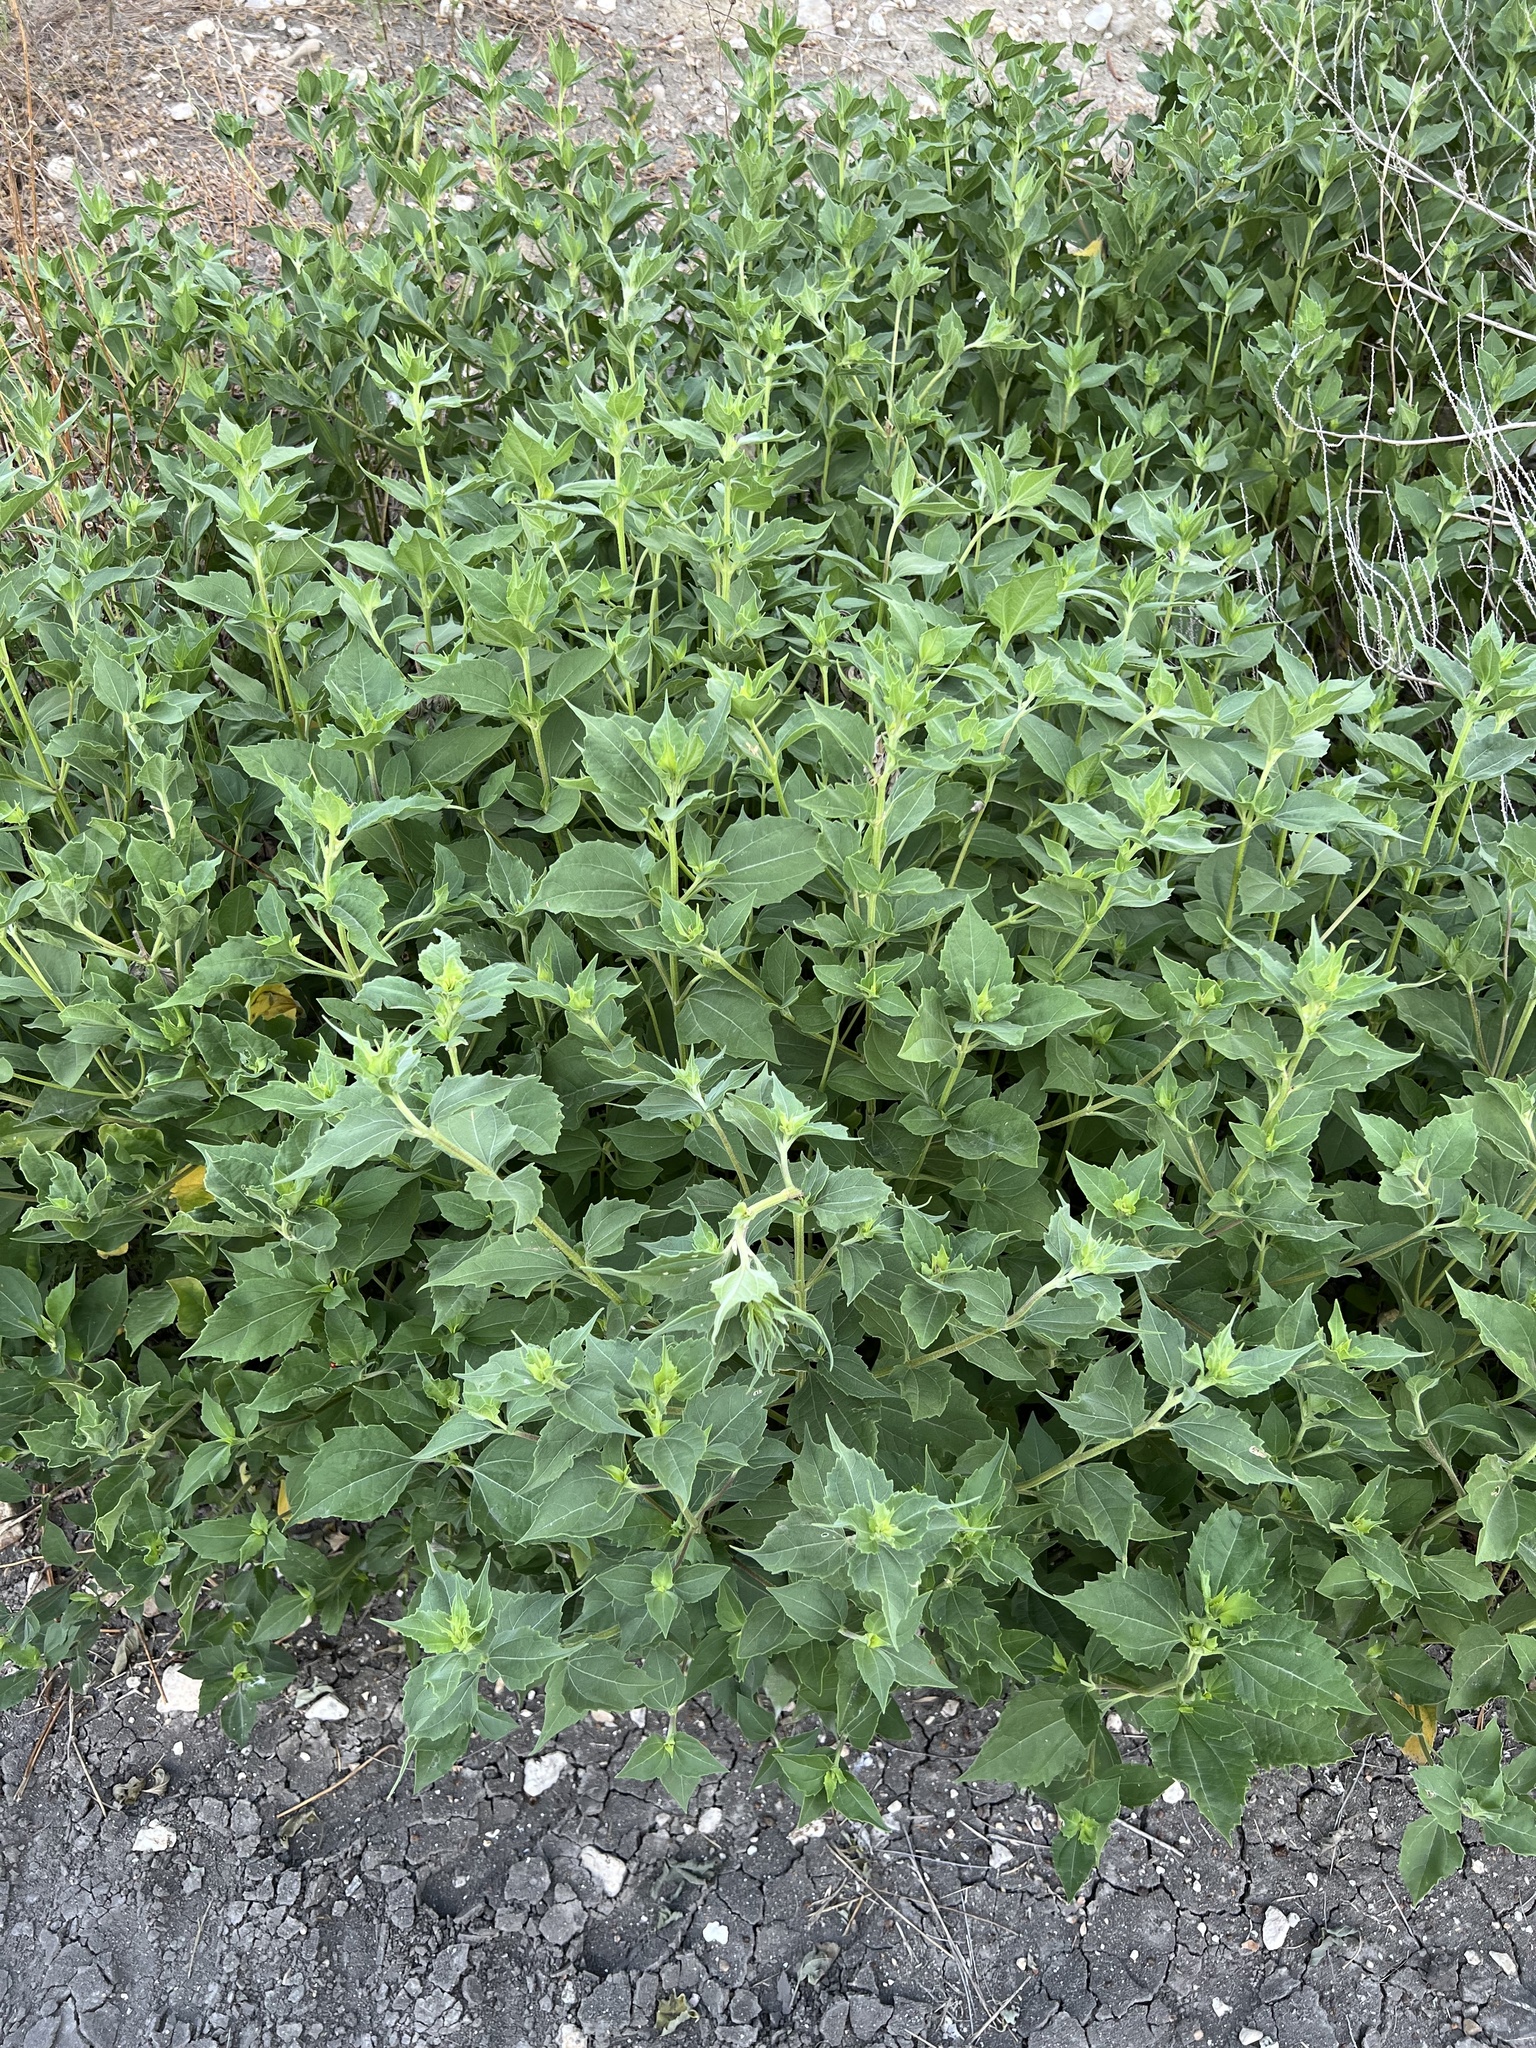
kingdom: Plantae
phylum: Tracheophyta
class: Magnoliopsida
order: Asterales
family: Asteraceae
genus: Iva
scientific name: Iva annua
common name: Marsh-elder
